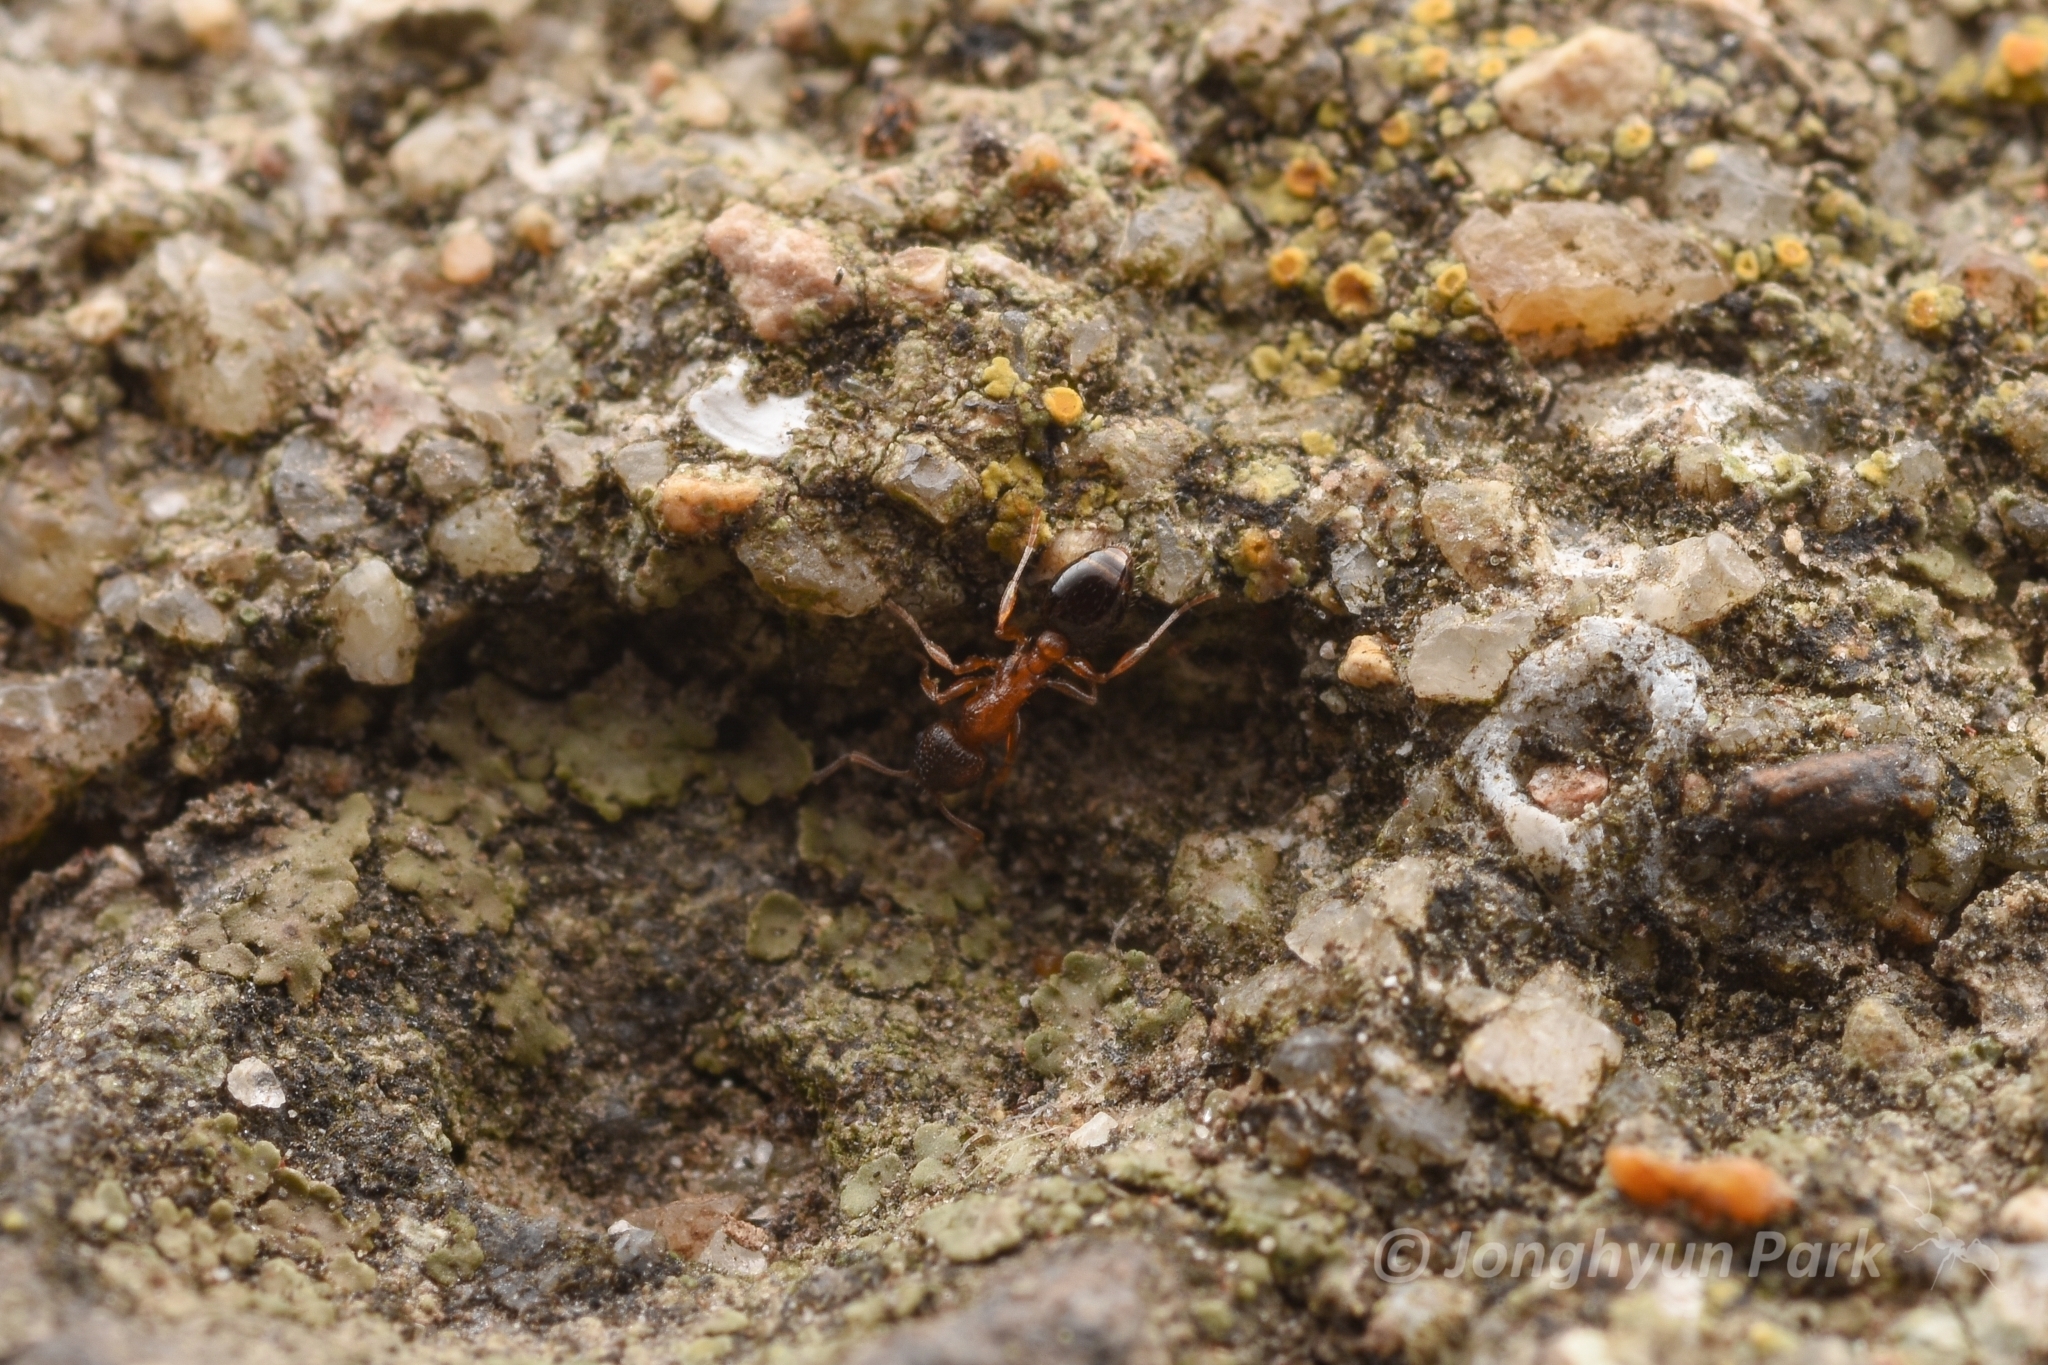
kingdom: Animalia
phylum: Arthropoda
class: Insecta
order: Hymenoptera
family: Formicidae
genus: Temnothorax
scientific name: Temnothorax
